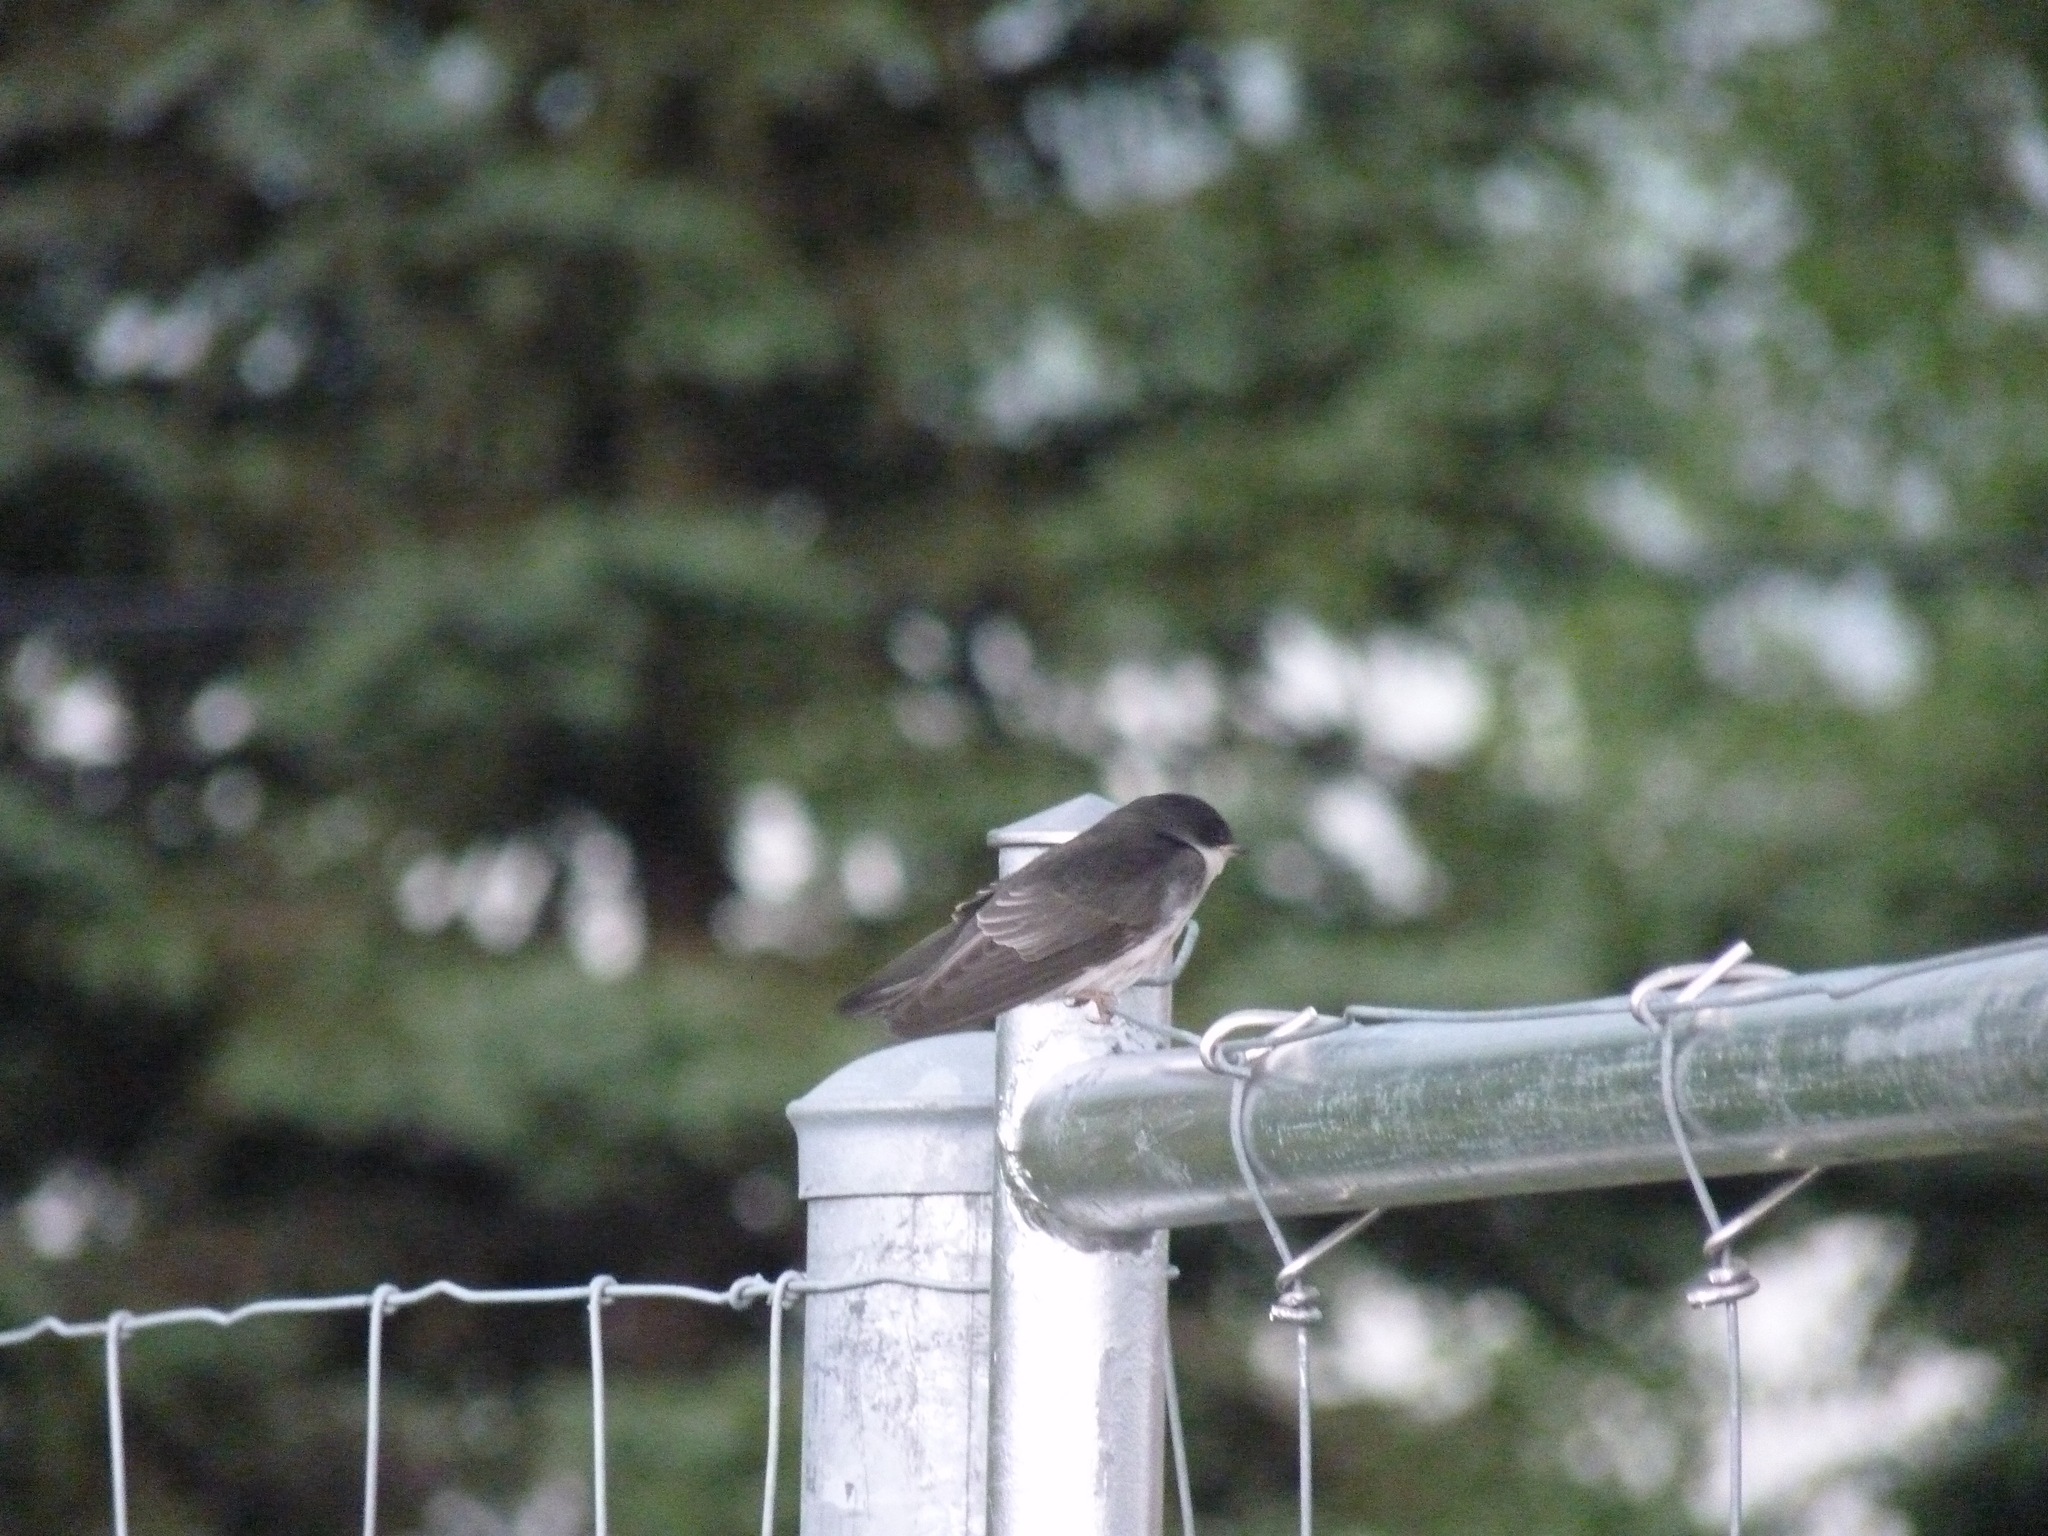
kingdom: Animalia
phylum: Chordata
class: Aves
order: Passeriformes
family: Hirundinidae
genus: Tachycineta
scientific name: Tachycineta bicolor
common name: Tree swallow
